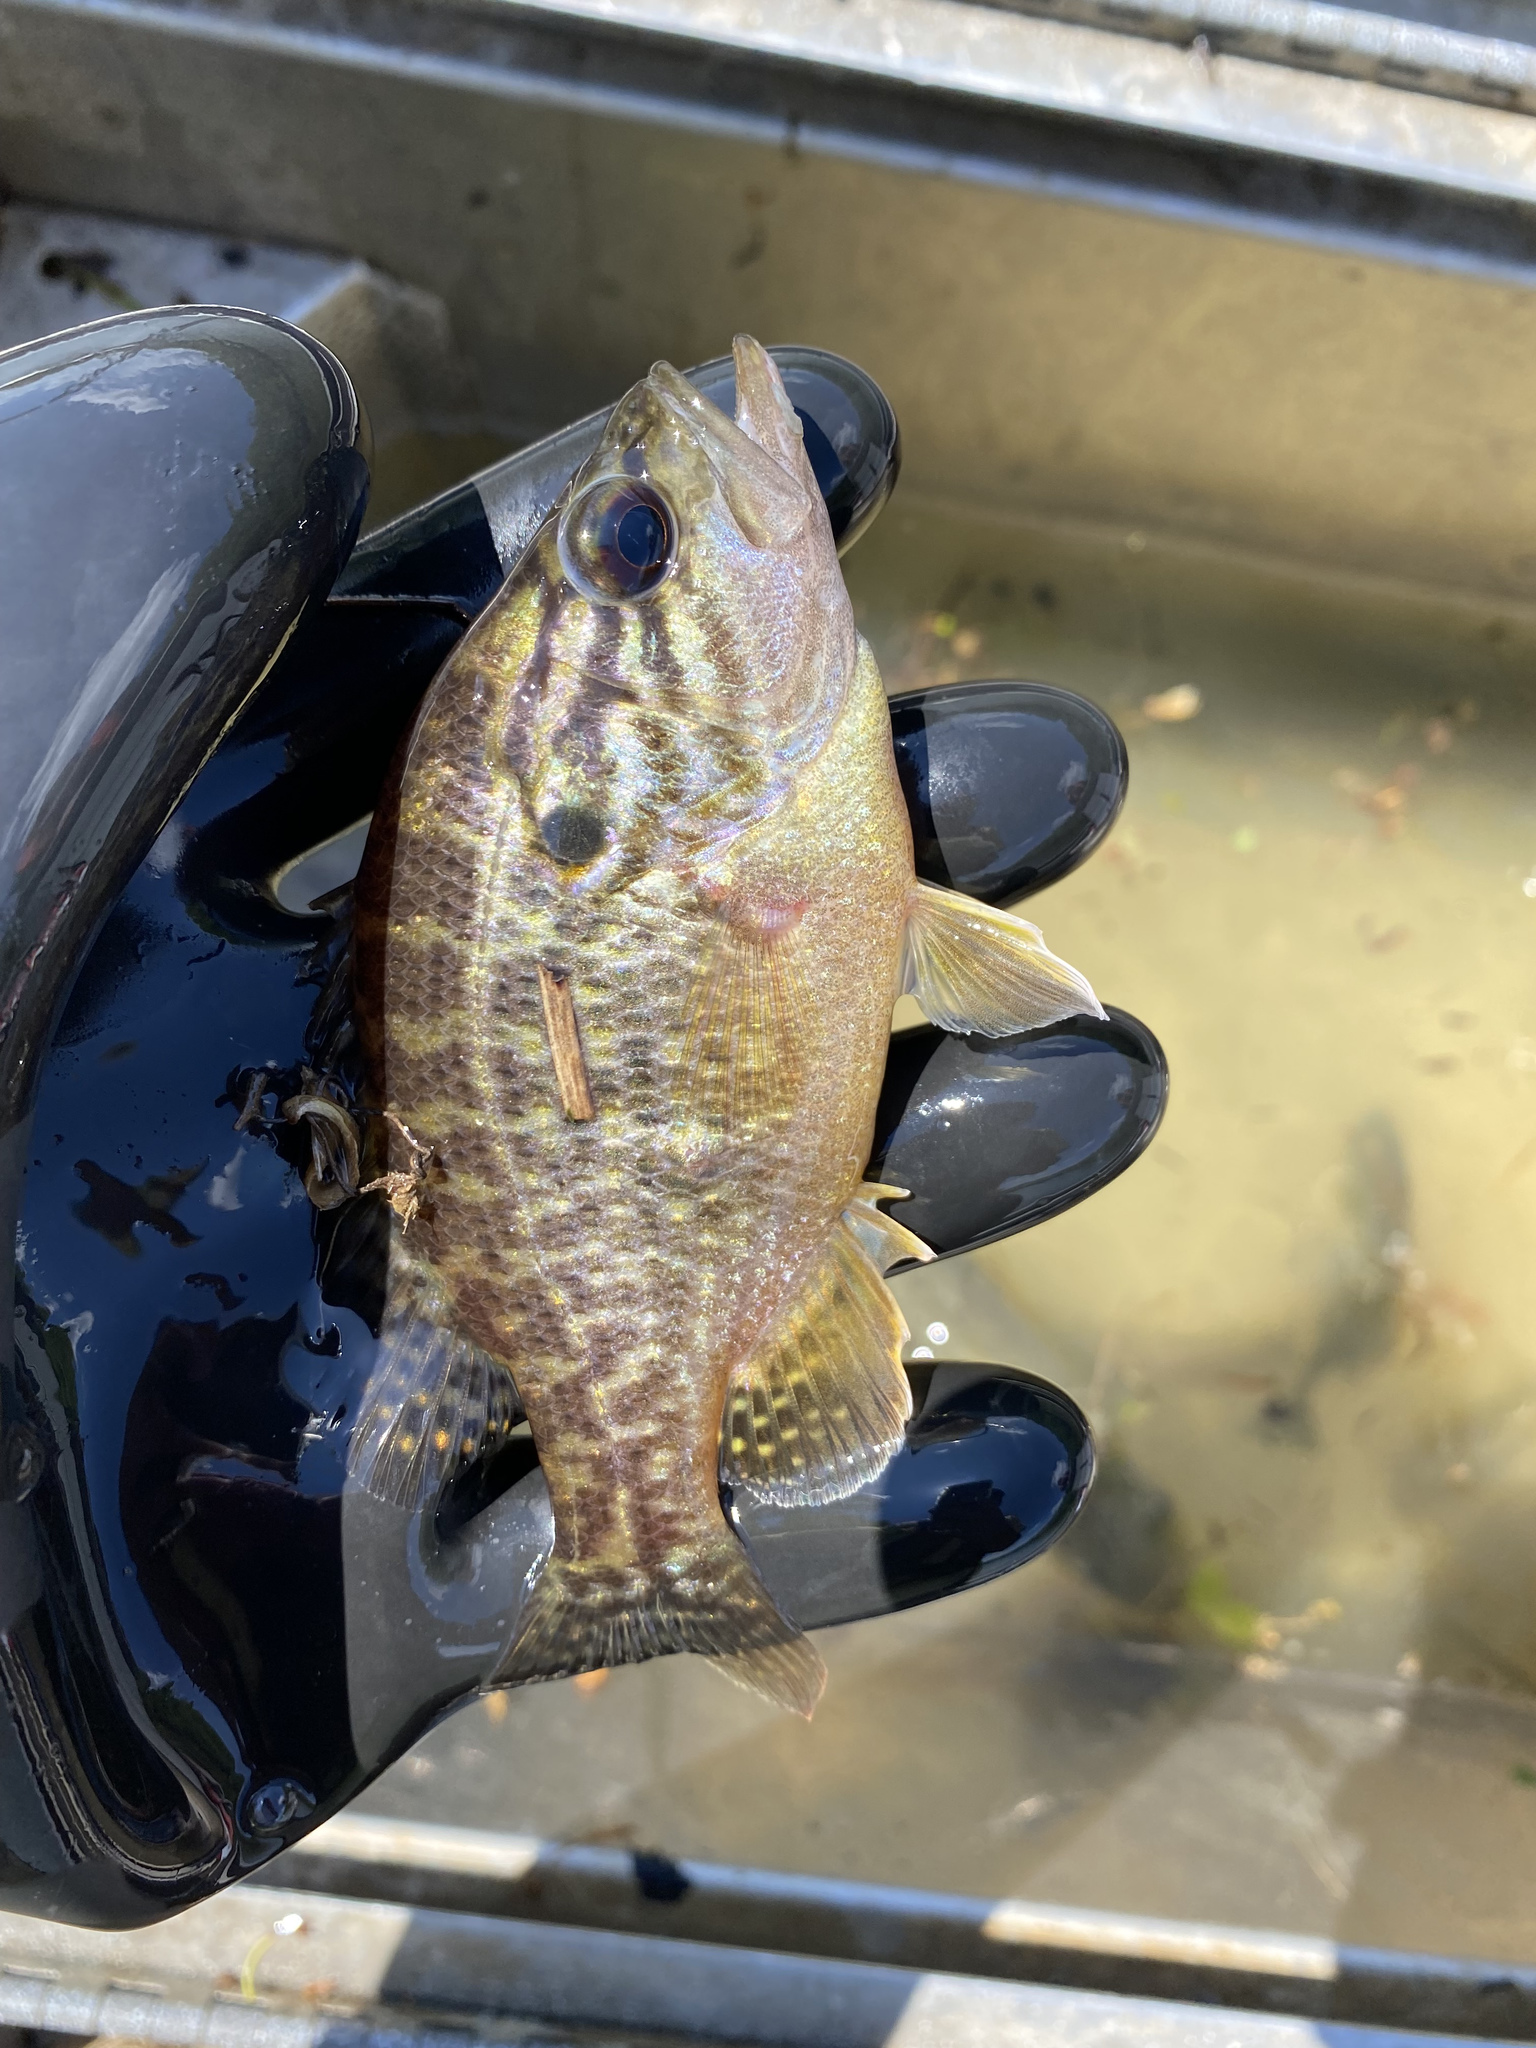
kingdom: Animalia
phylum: Chordata
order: Perciformes
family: Centrarchidae
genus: Lepomis
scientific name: Lepomis gulosus
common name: Warmouth
